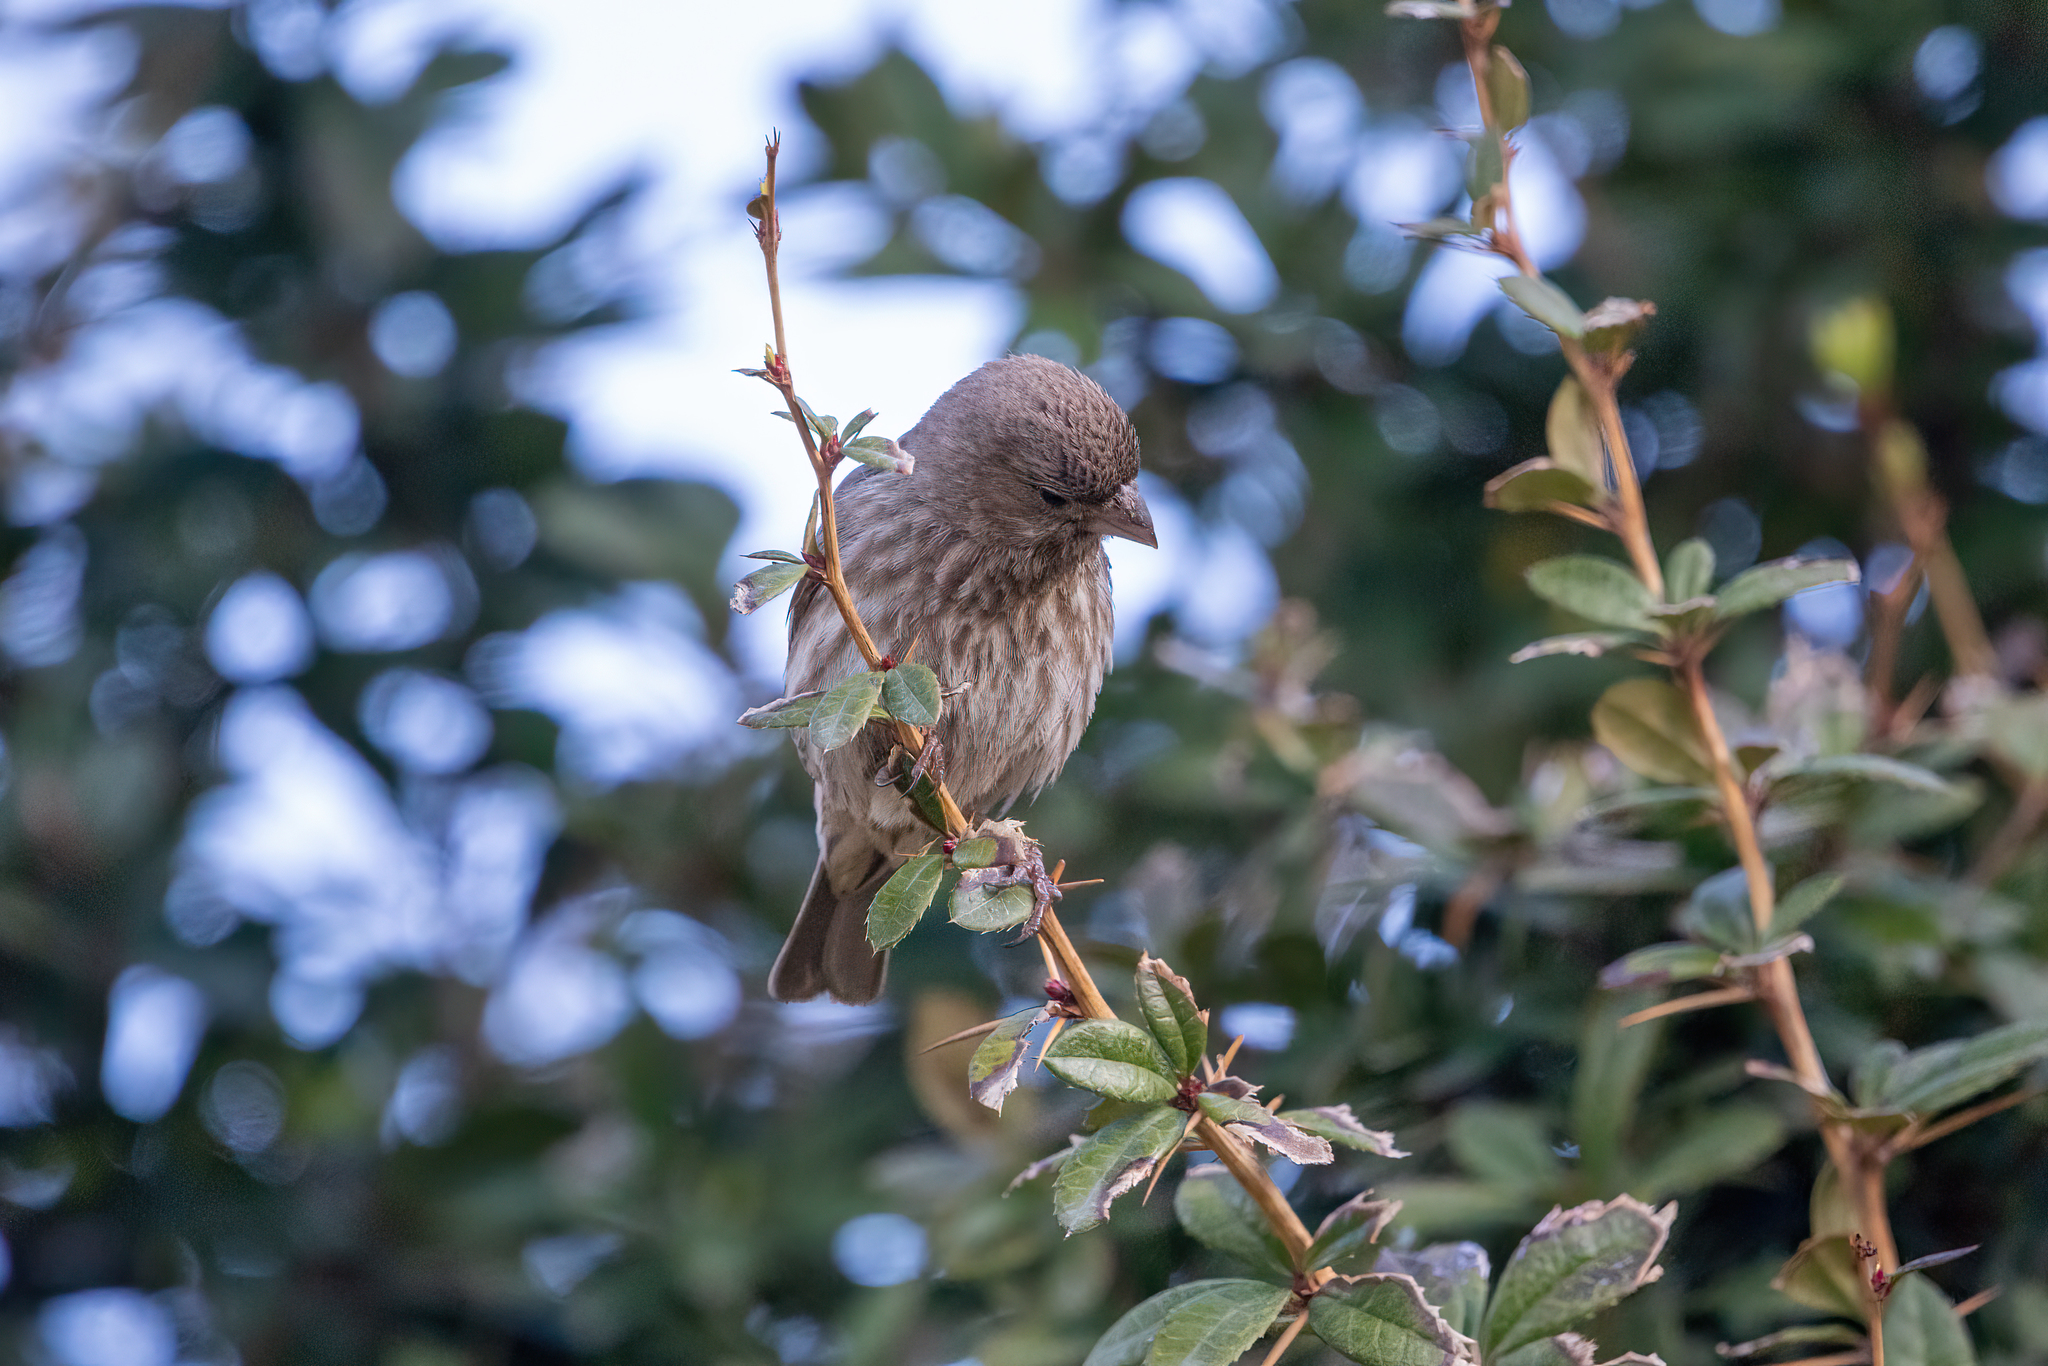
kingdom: Animalia
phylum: Chordata
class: Aves
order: Passeriformes
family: Fringillidae
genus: Haemorhous
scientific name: Haemorhous mexicanus
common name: House finch
